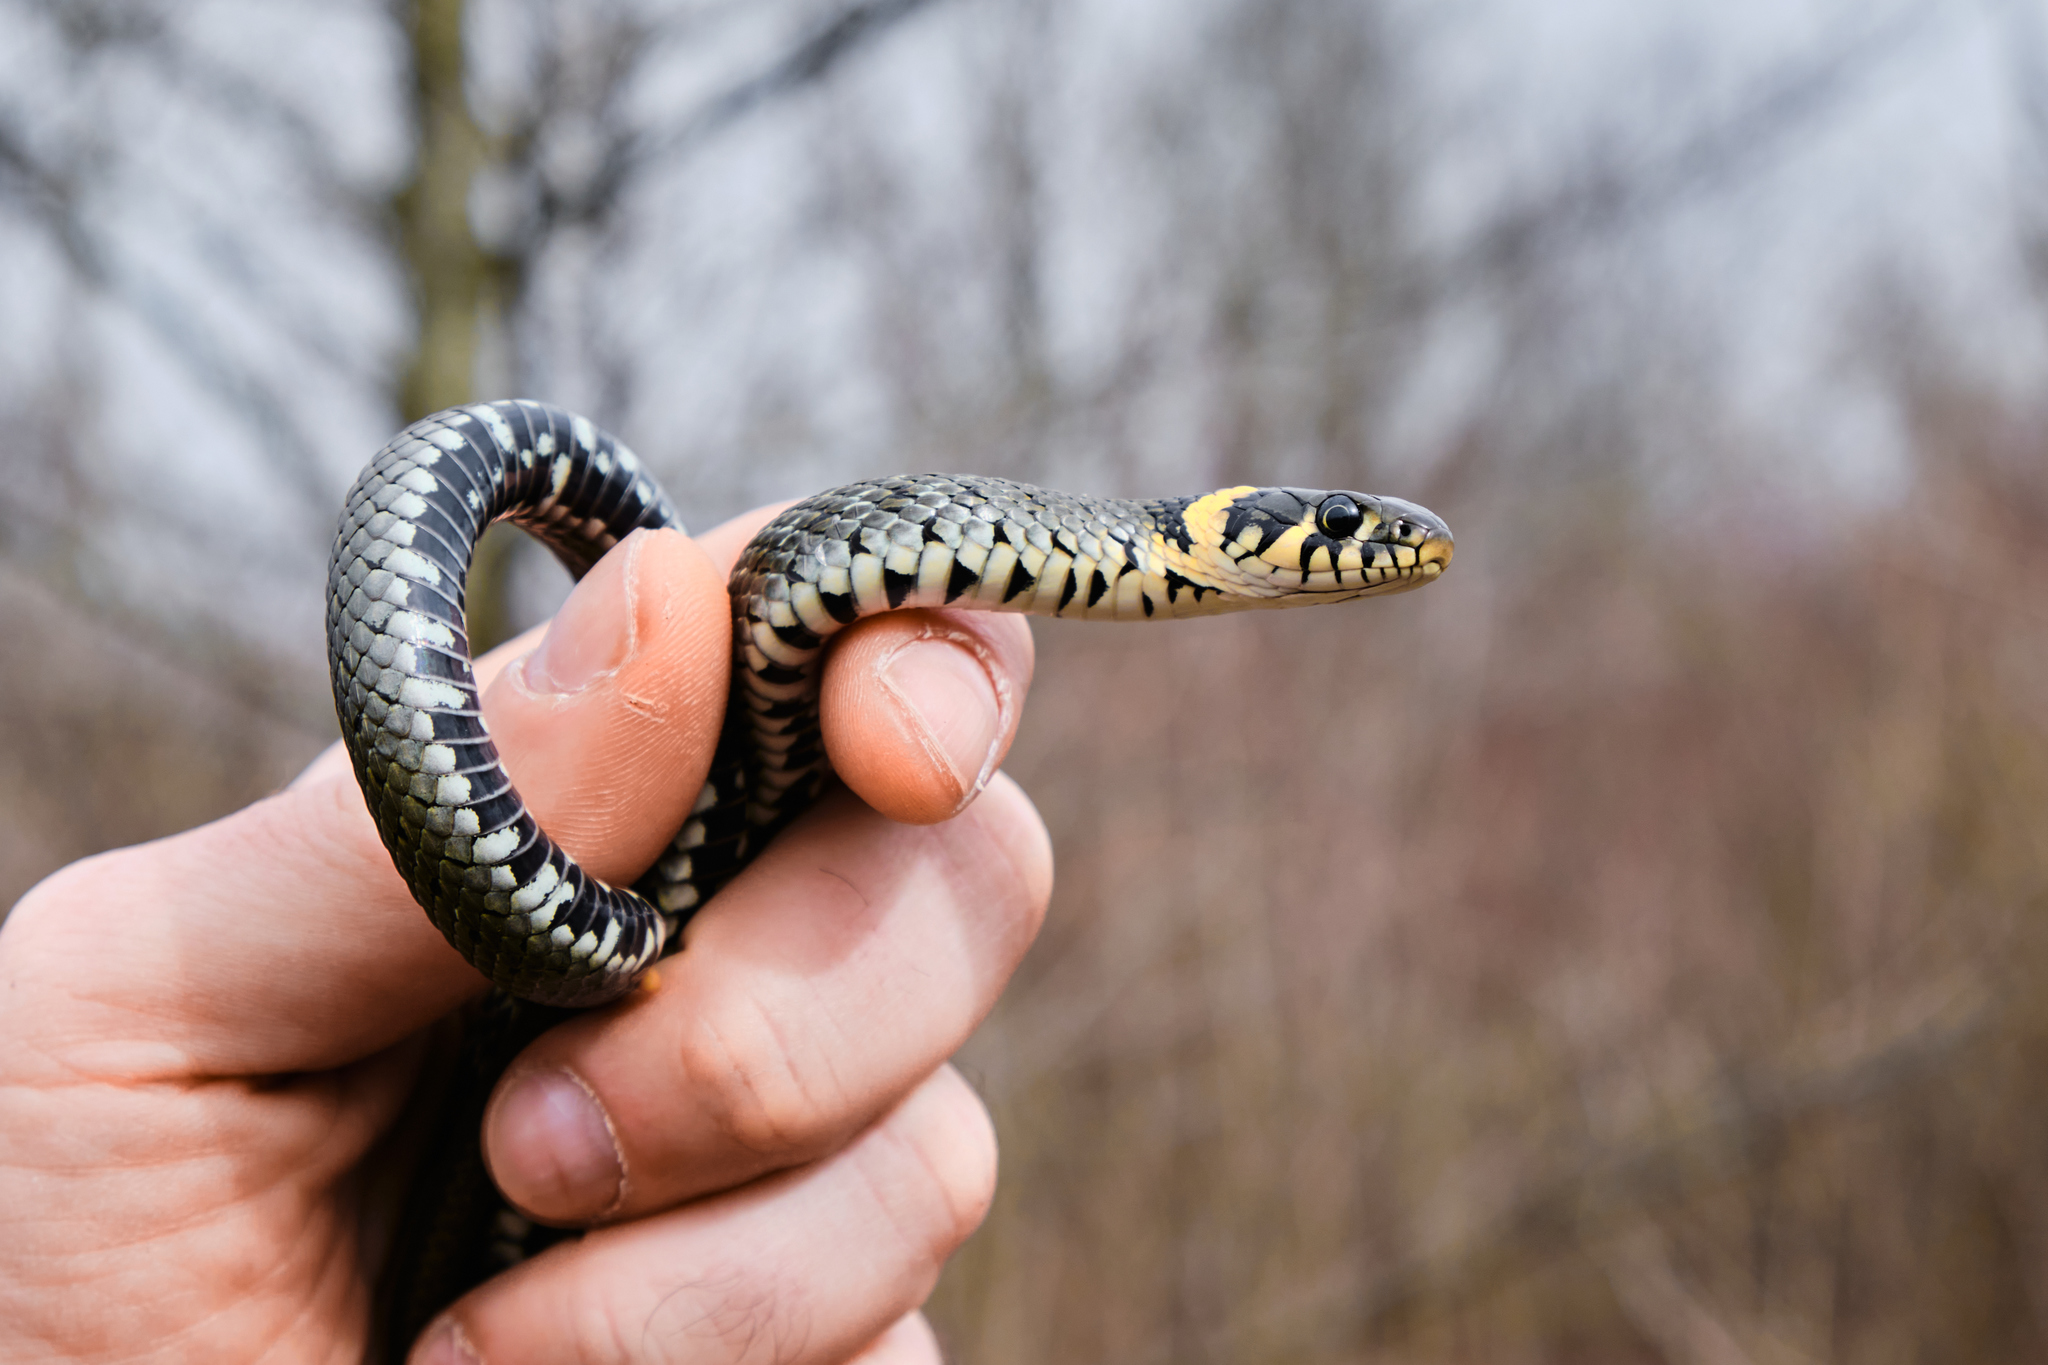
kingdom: Animalia
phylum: Chordata
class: Squamata
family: Colubridae
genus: Natrix
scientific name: Natrix natrix
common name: Grass snake
